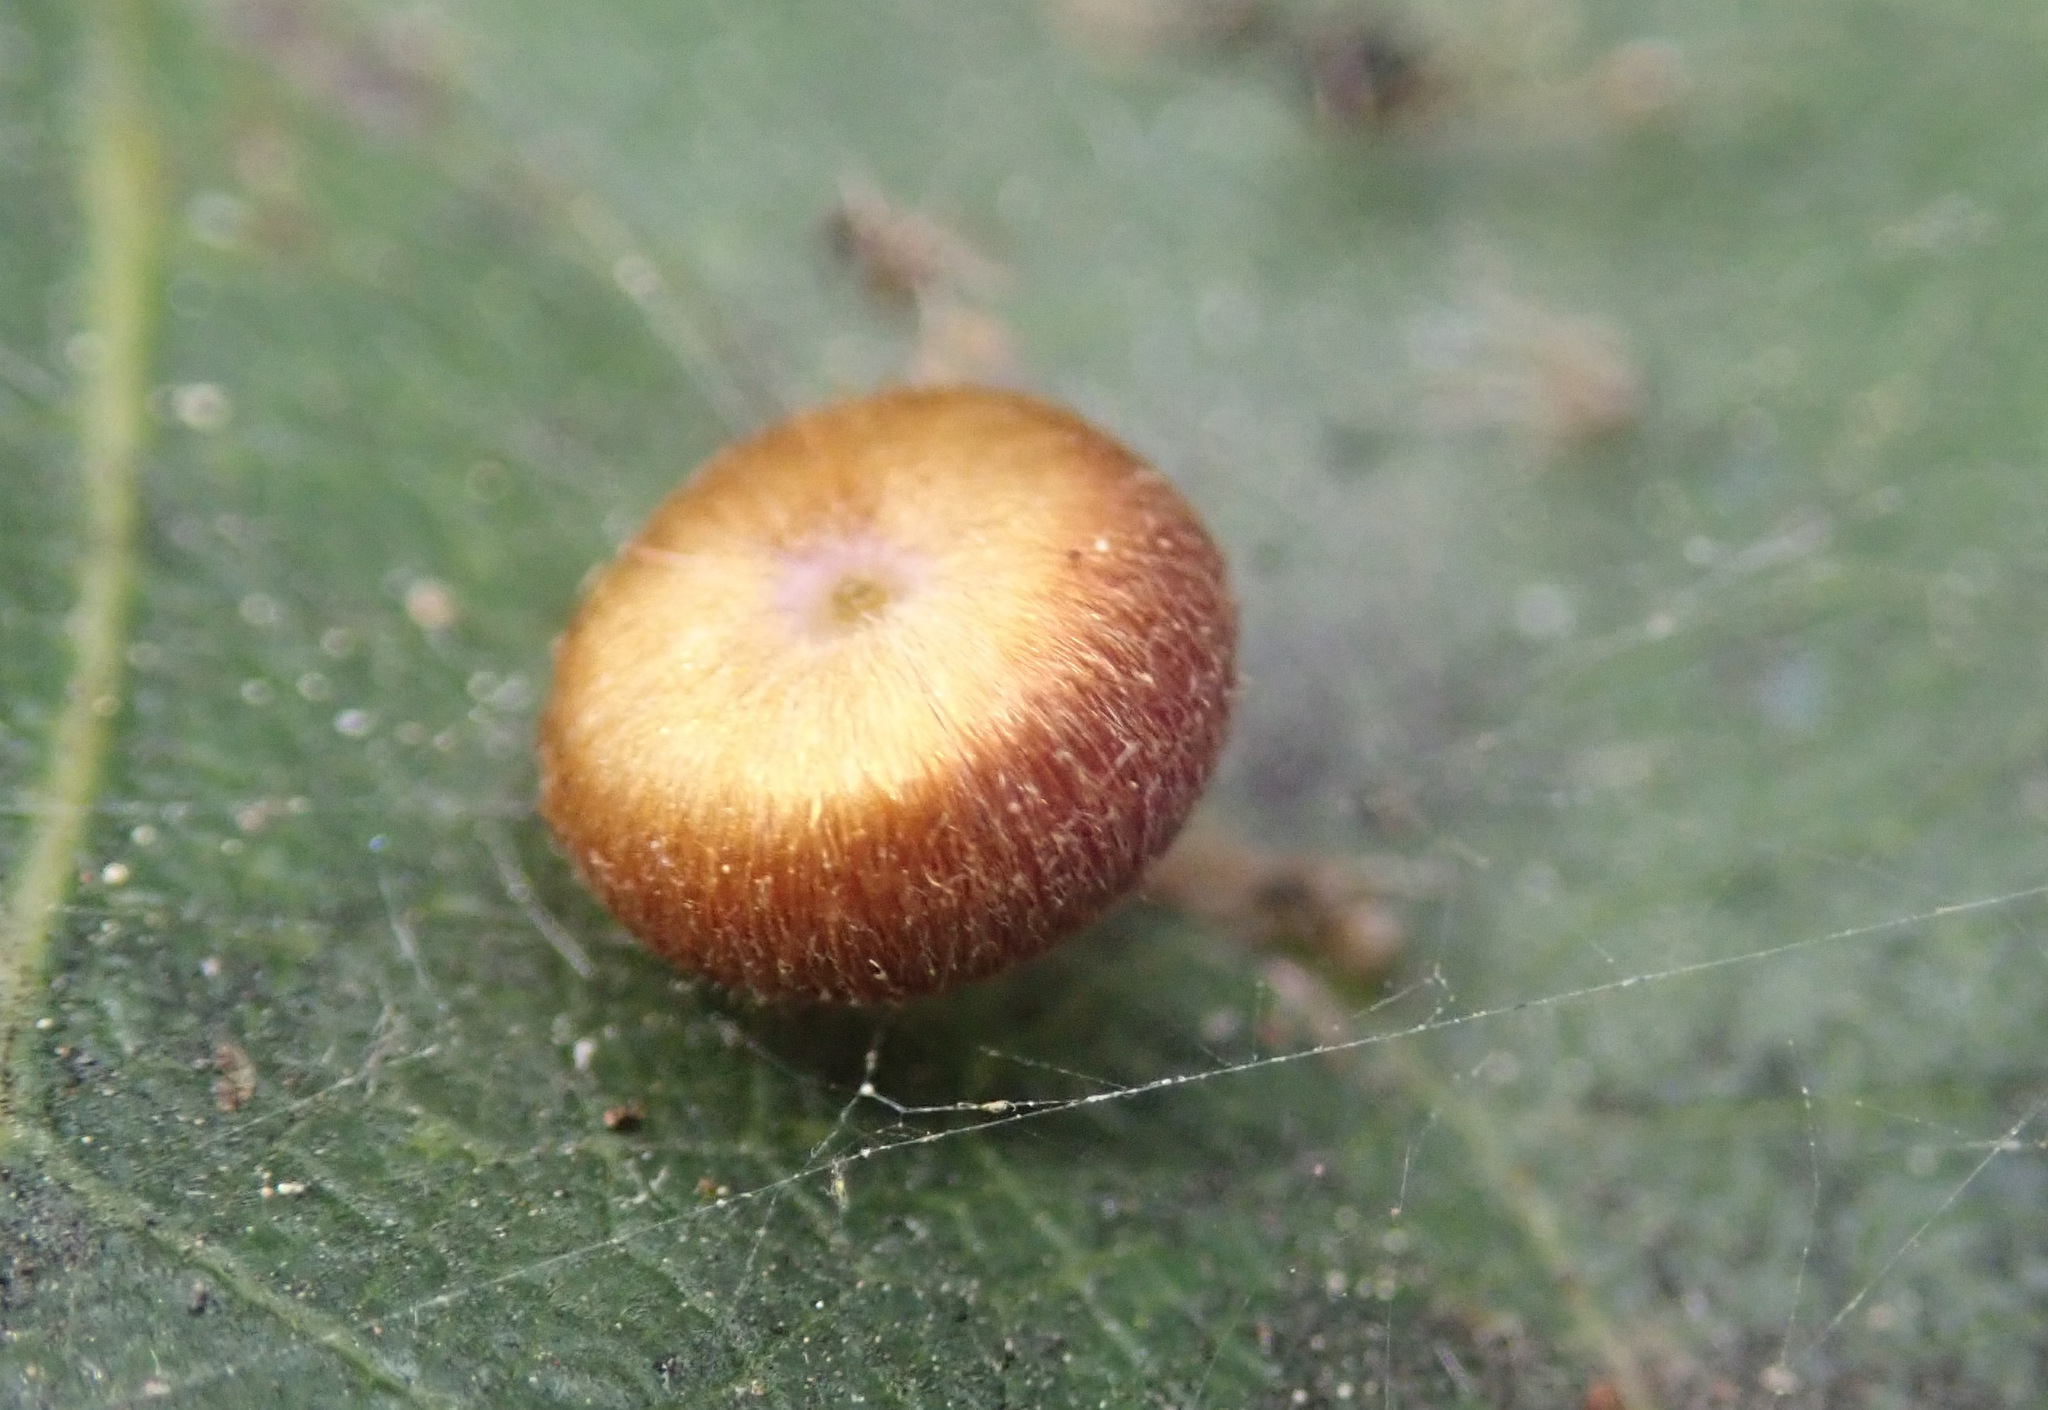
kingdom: Animalia
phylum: Arthropoda
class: Insecta
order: Hymenoptera
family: Cynipidae
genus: Neuroterus
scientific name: Neuroterus numismalis
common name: Silk-button spangle gall
